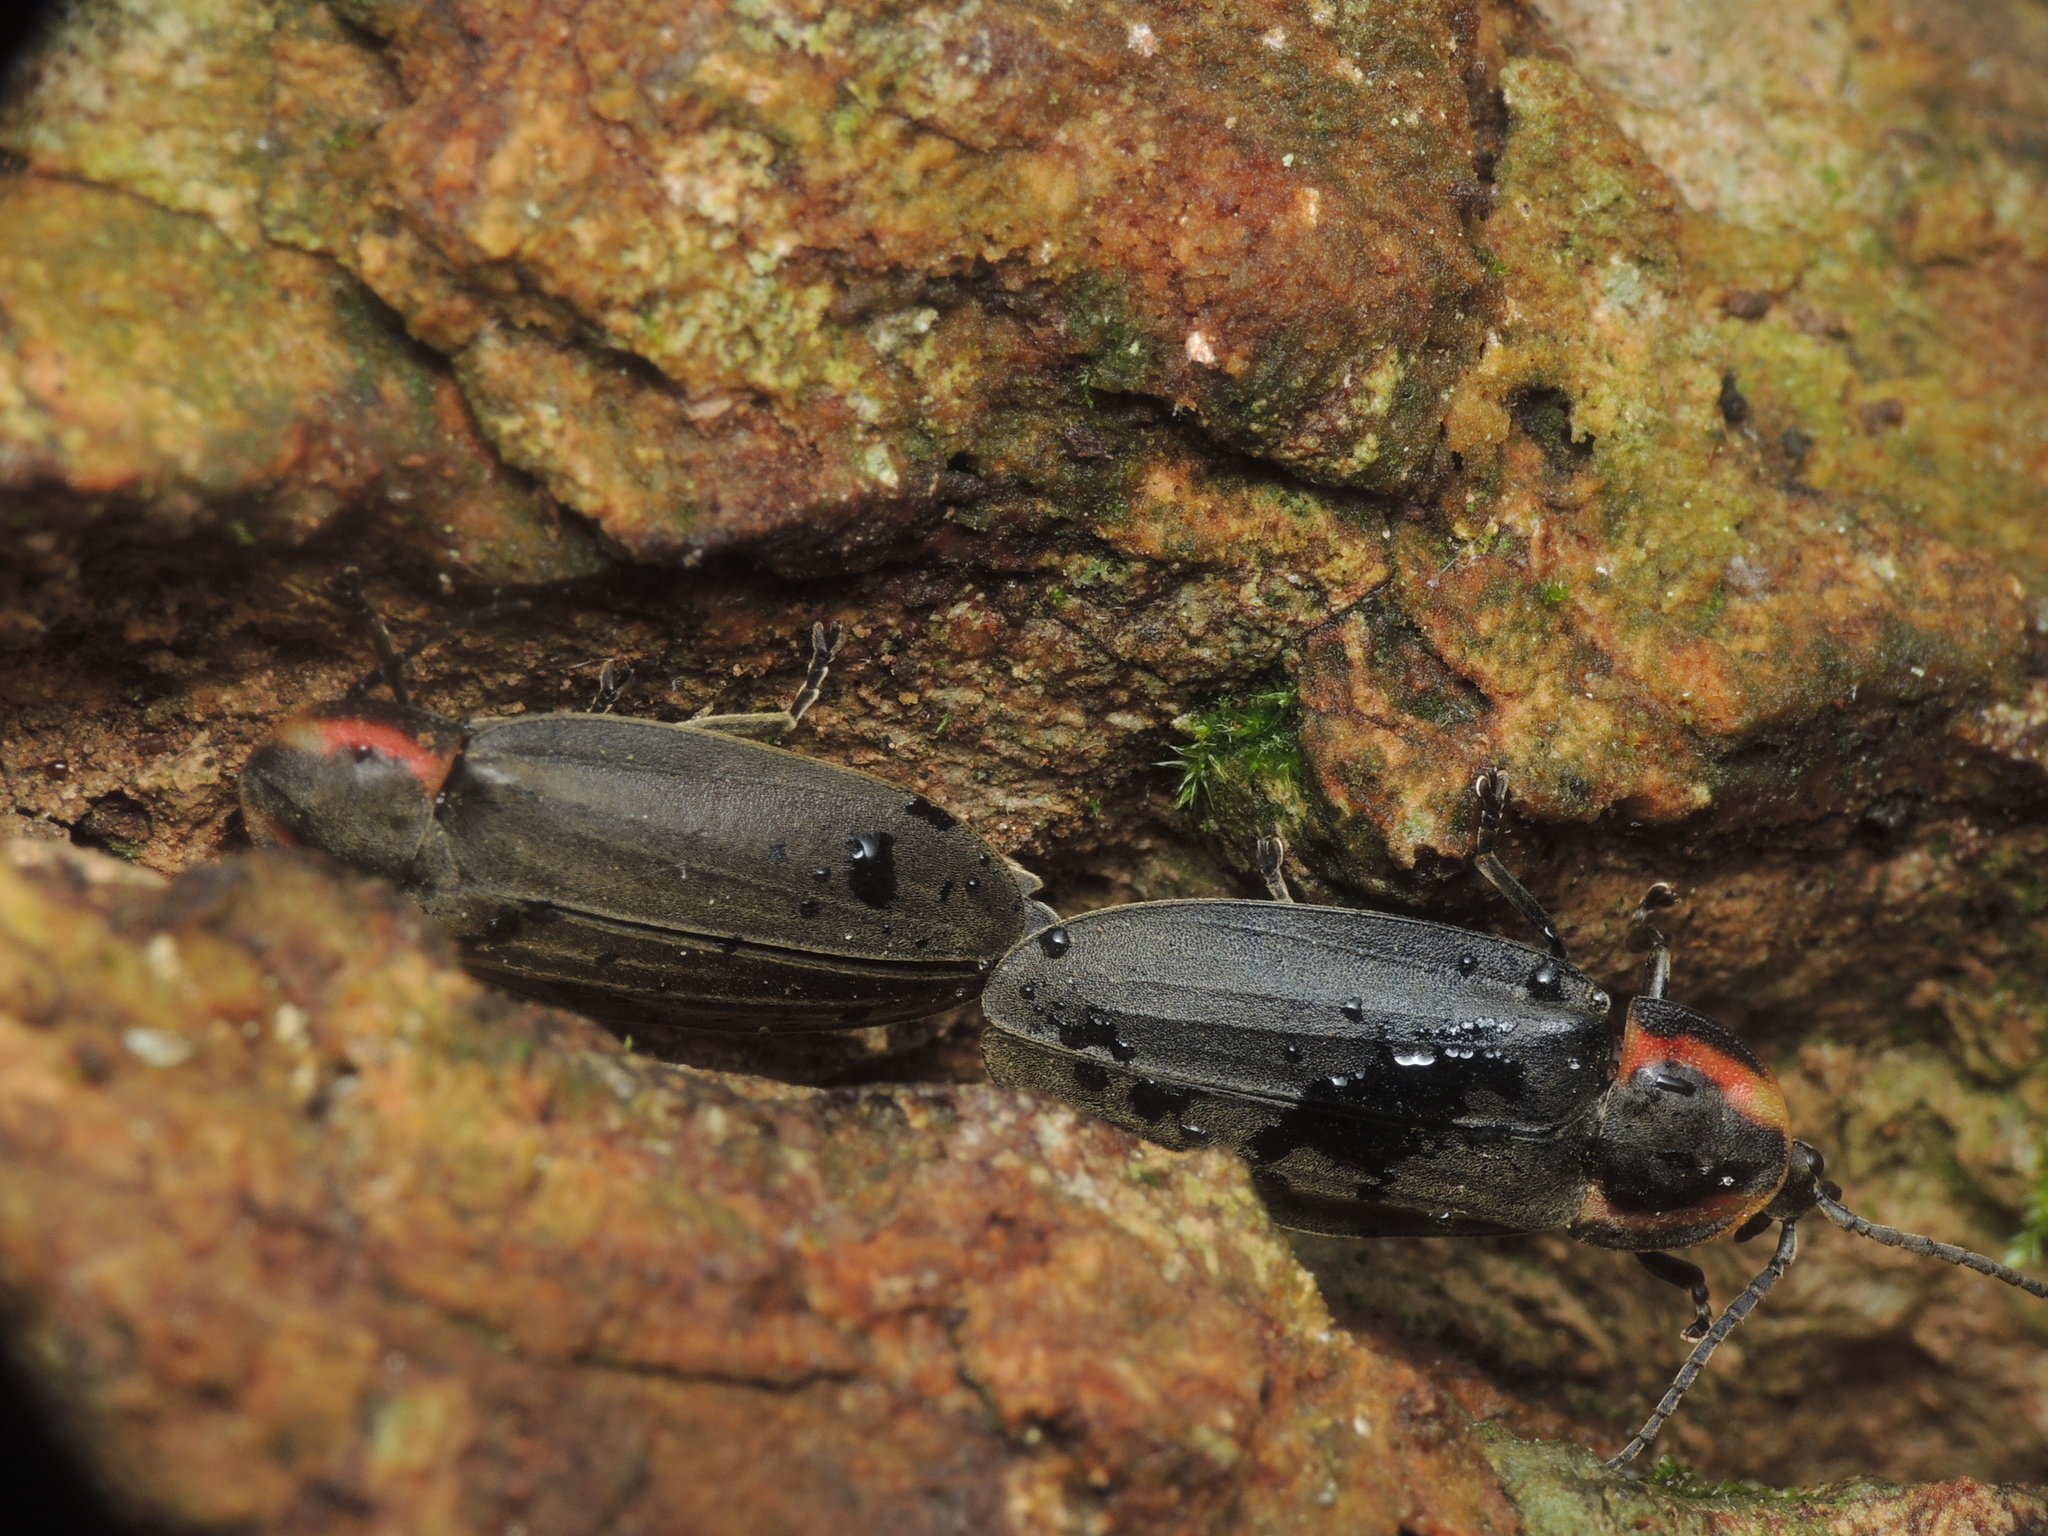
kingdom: Animalia
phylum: Arthropoda
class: Insecta
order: Coleoptera
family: Lampyridae
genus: Photinus
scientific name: Photinus corrusca
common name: Winter firefly
